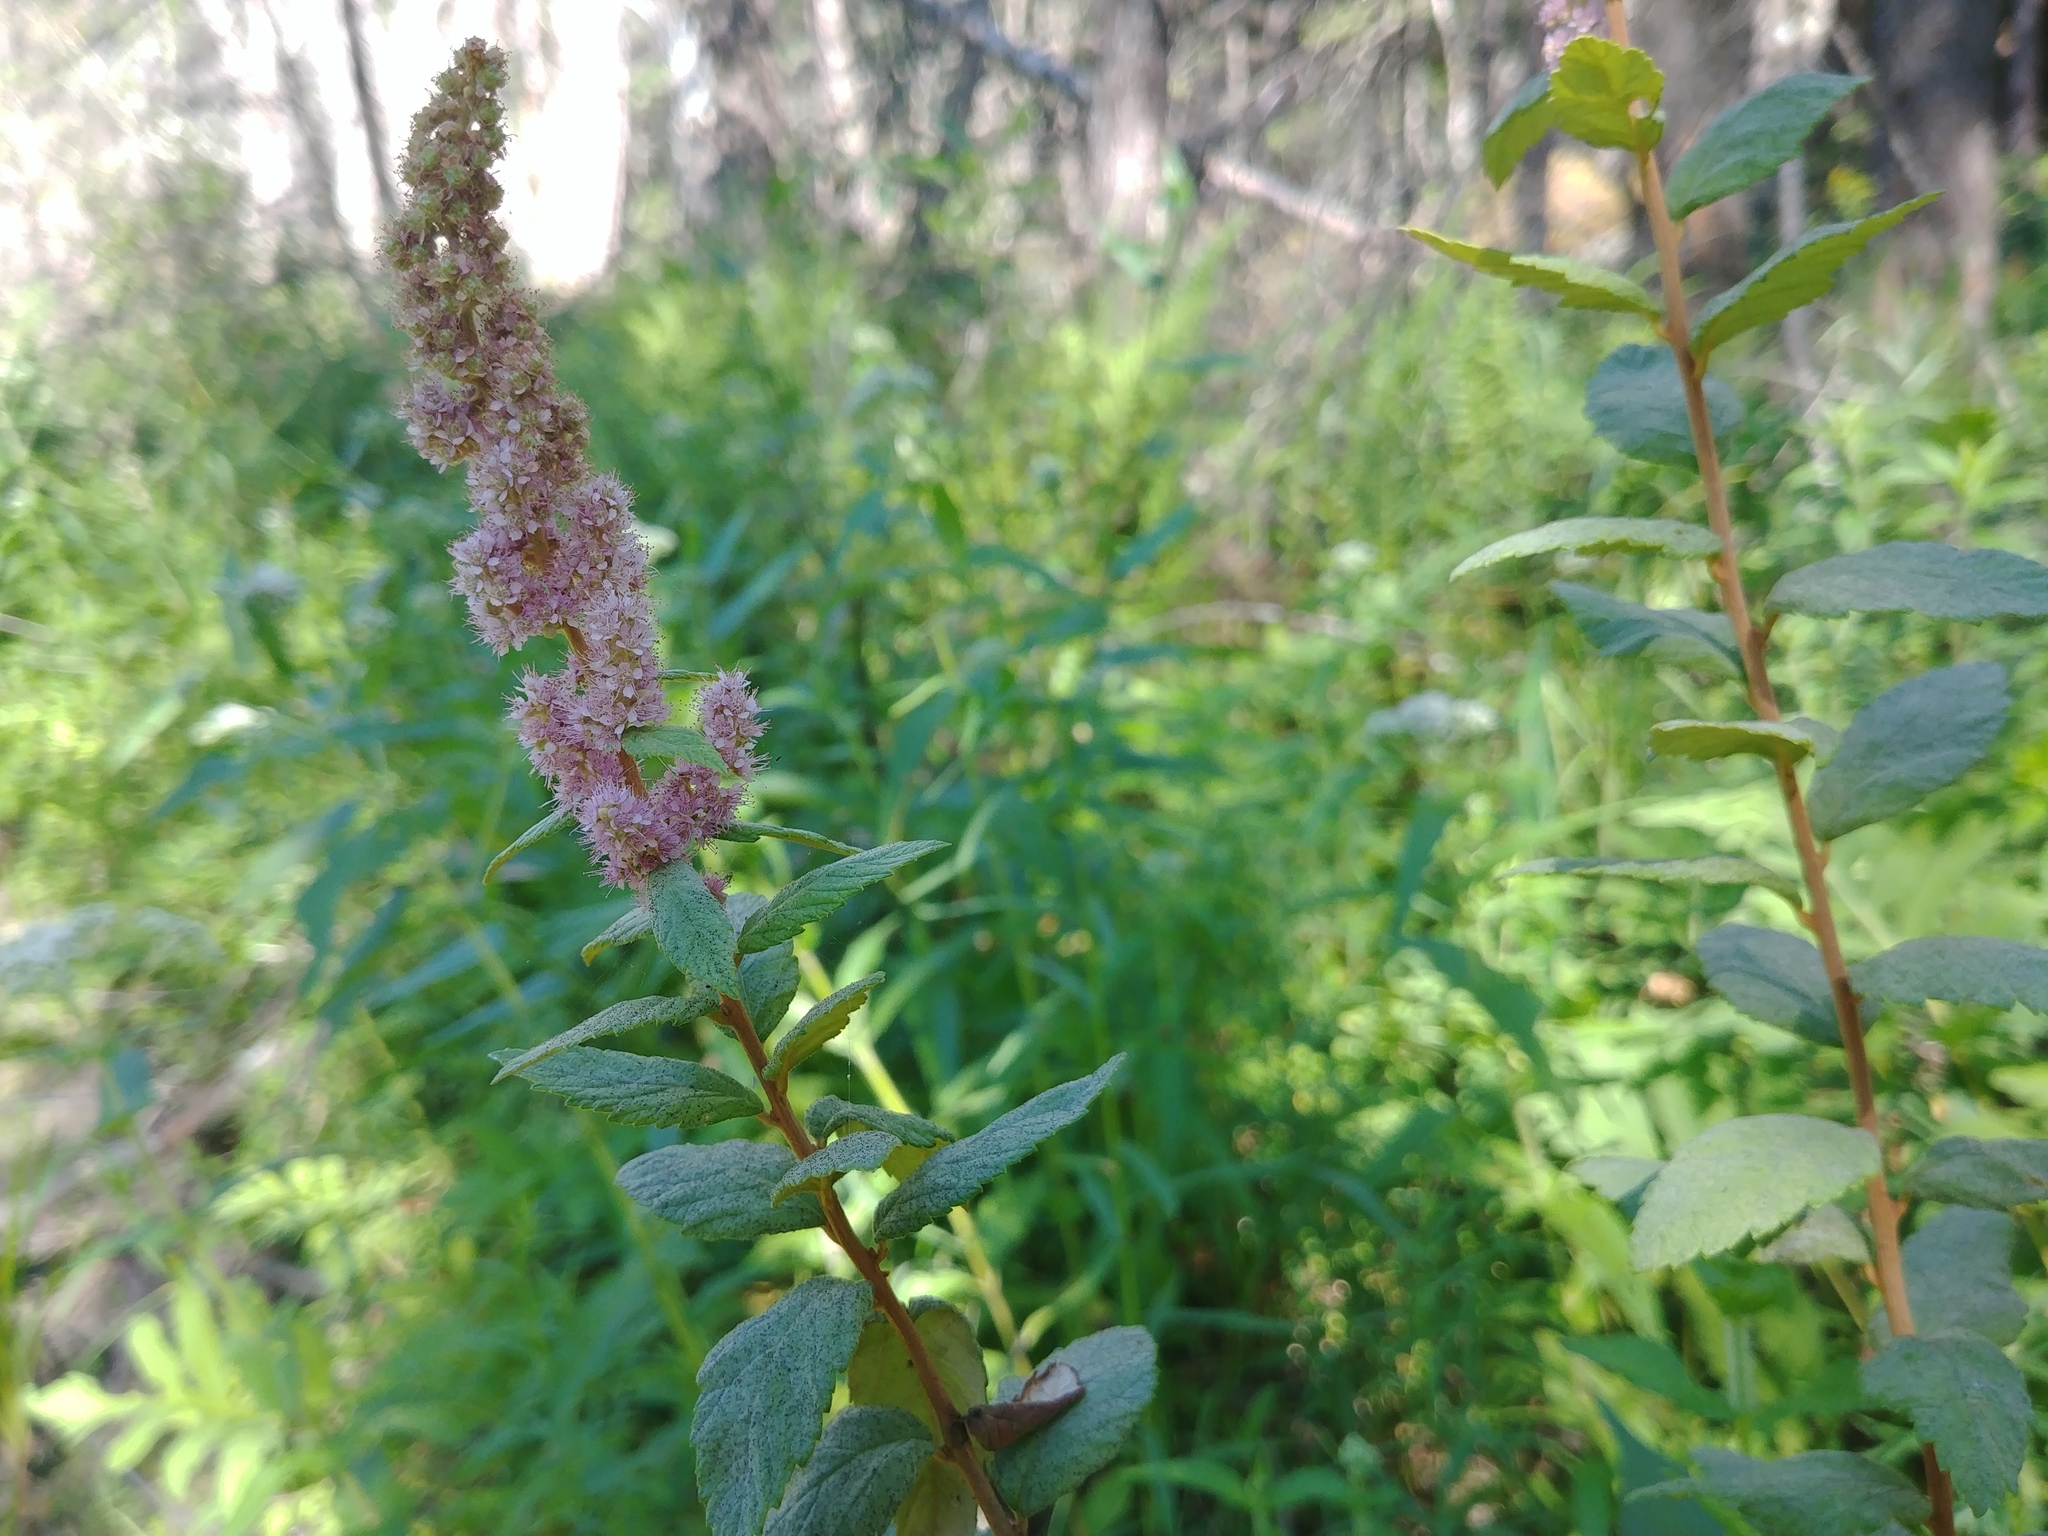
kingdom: Plantae
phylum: Tracheophyta
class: Magnoliopsida
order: Rosales
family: Rosaceae
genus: Spiraea
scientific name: Spiraea tomentosa
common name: Hardhack
